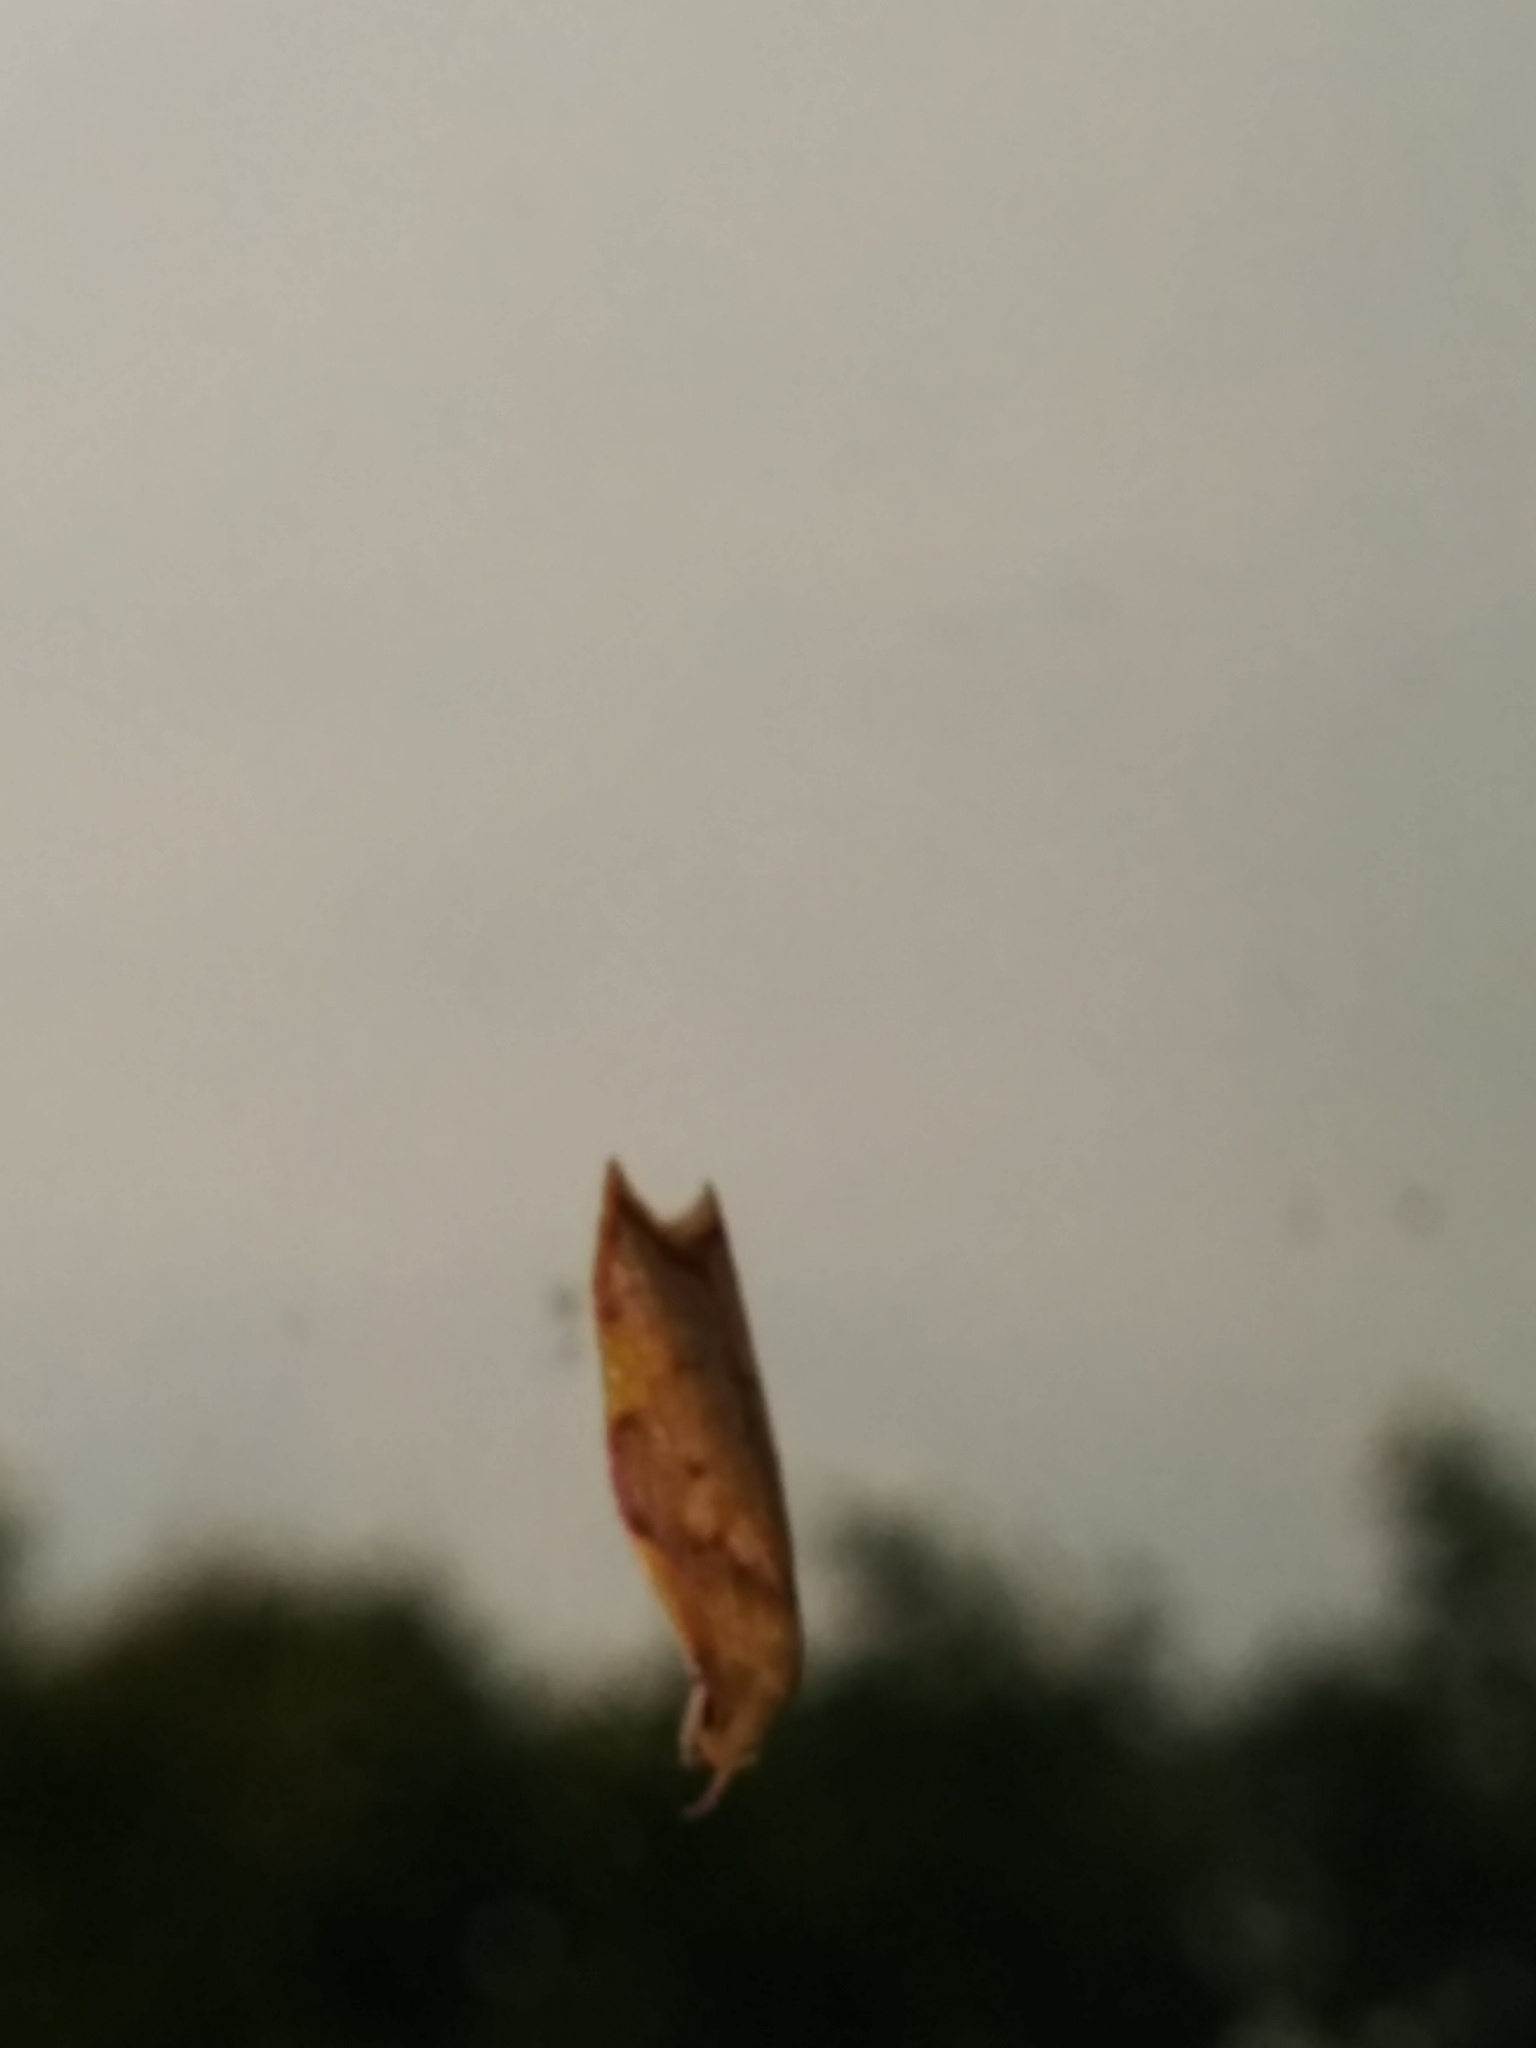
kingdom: Animalia
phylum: Arthropoda
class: Insecta
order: Lepidoptera
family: Peleopodidae
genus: Carcina
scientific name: Carcina quercana
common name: Moth
